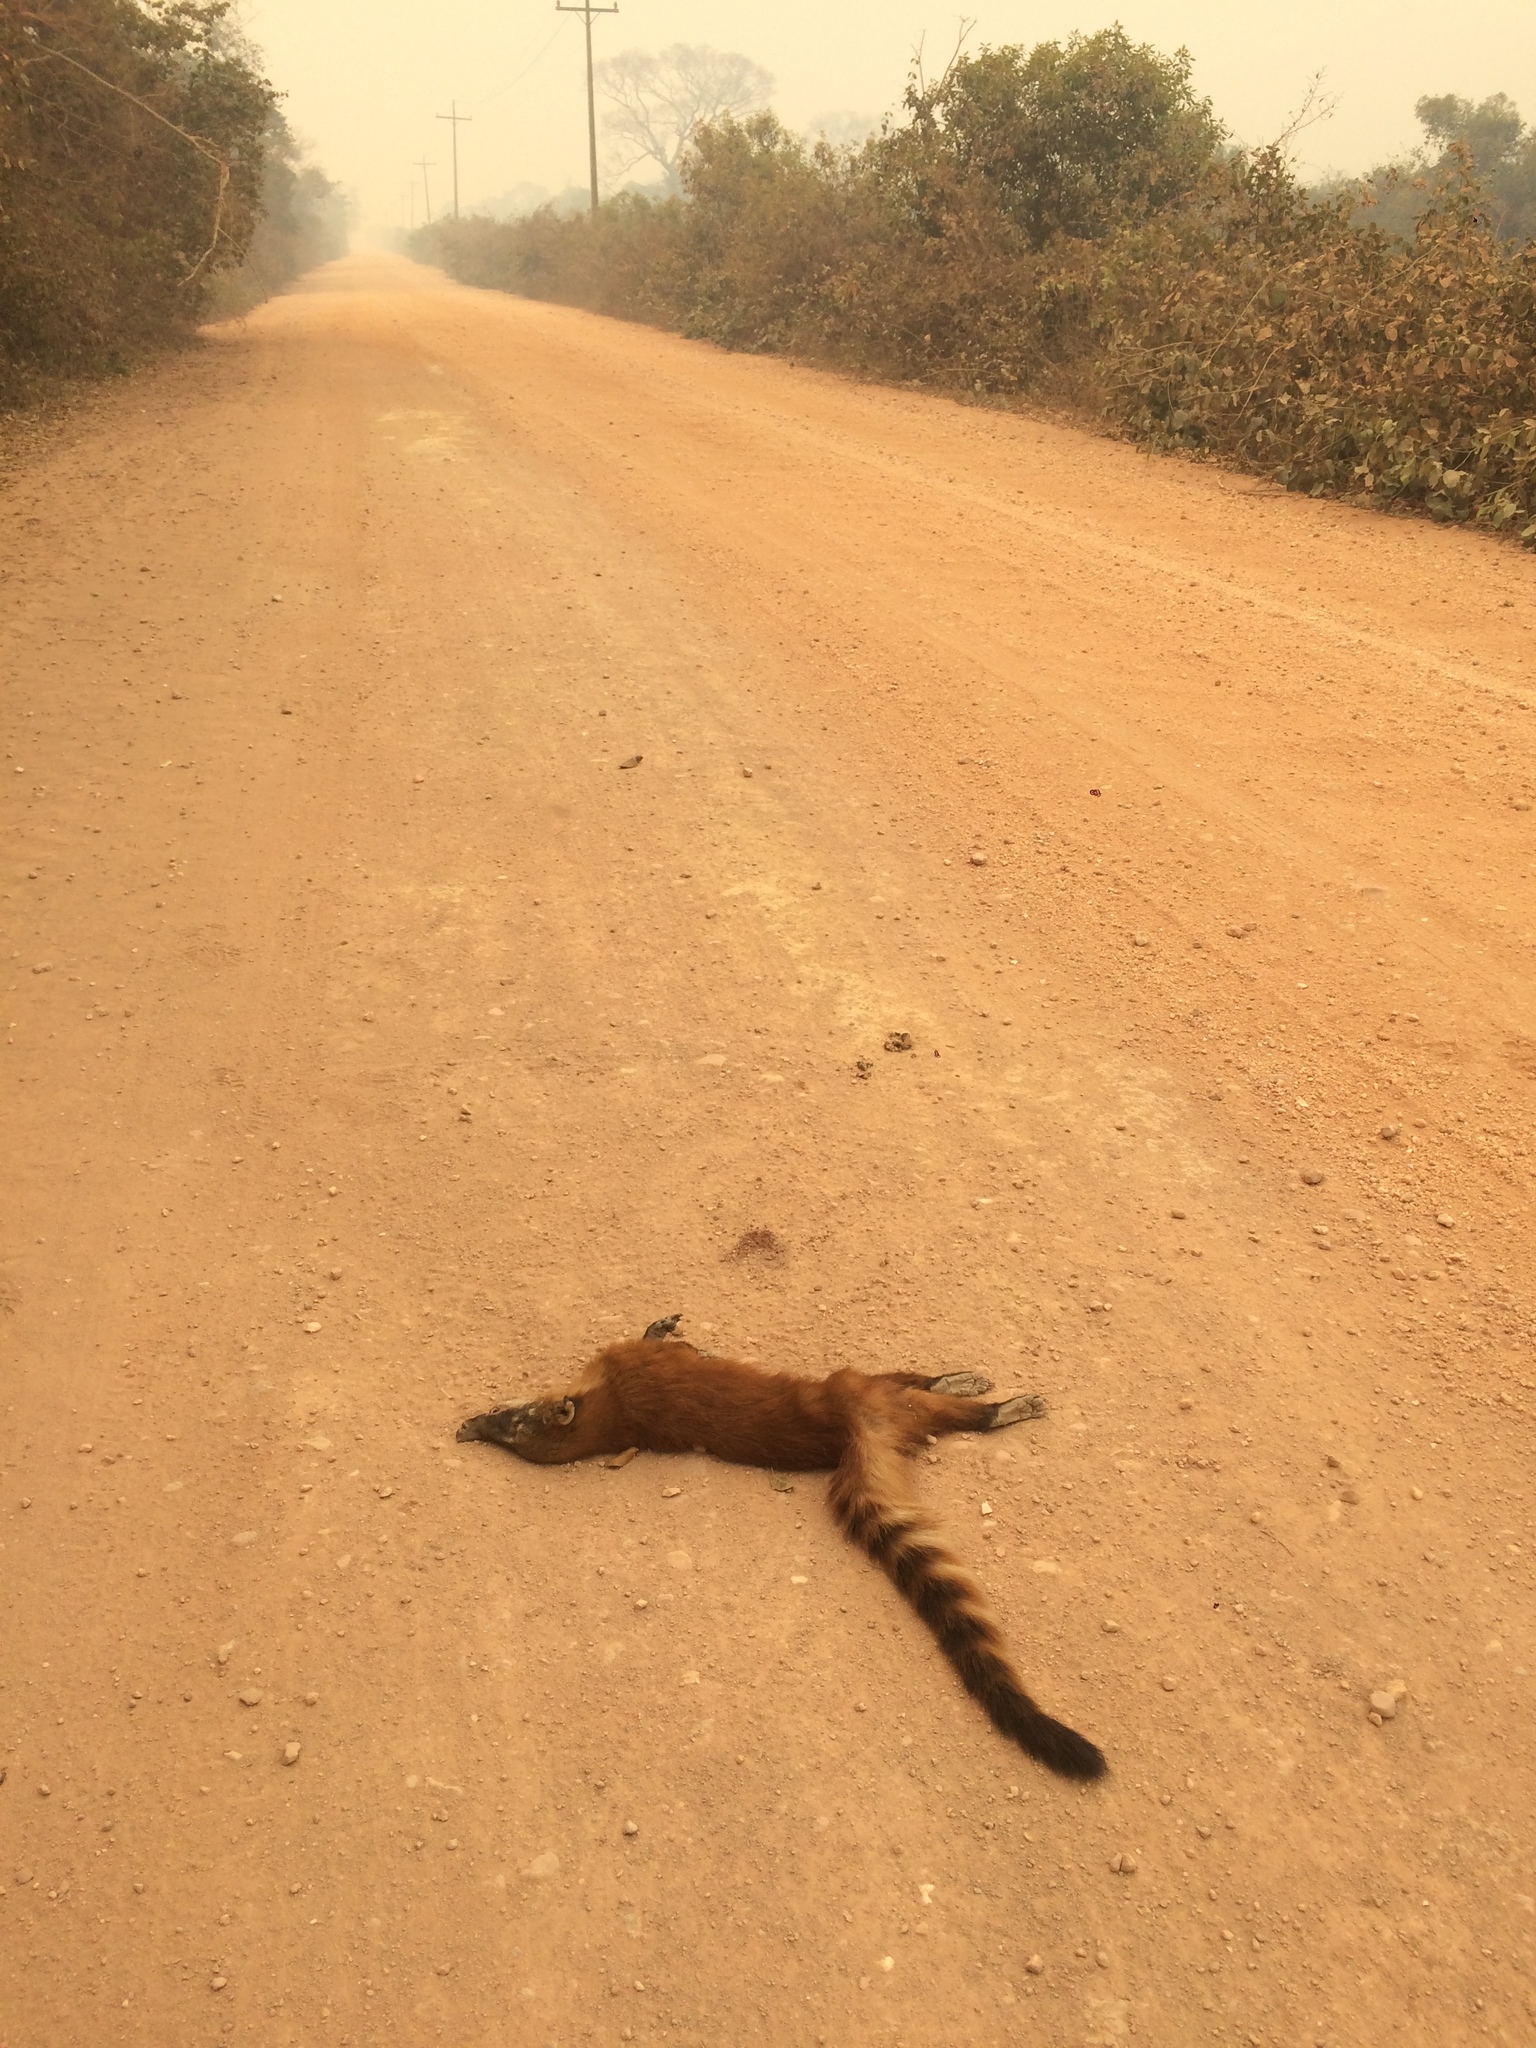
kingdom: Animalia
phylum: Chordata
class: Mammalia
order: Carnivora
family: Procyonidae
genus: Nasua
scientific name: Nasua nasua
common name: South american coati
